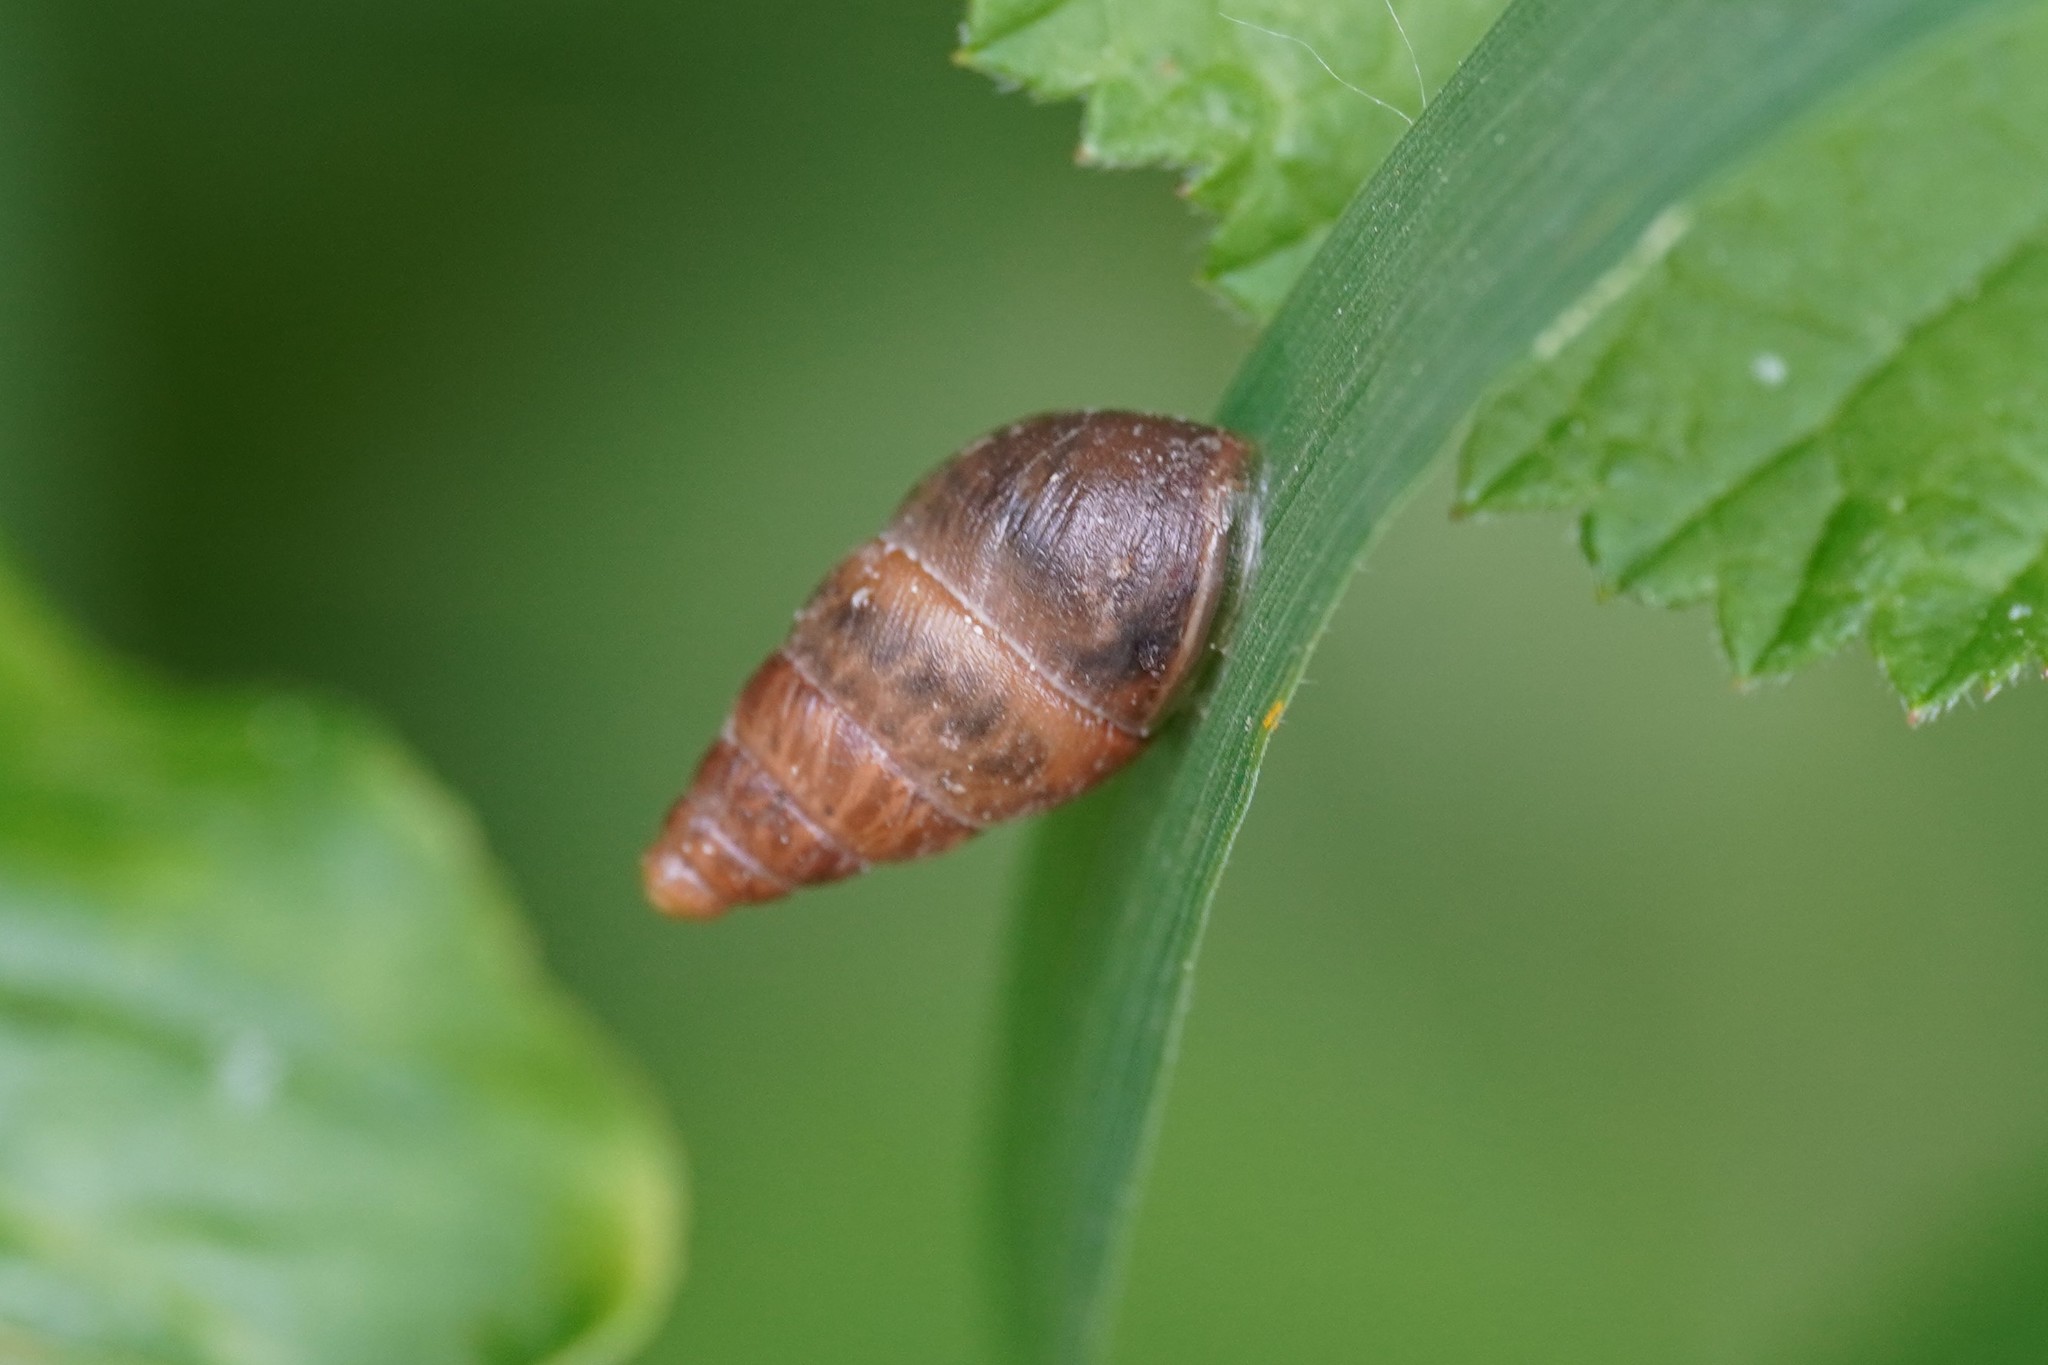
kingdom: Animalia
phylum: Mollusca
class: Gastropoda
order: Stylommatophora
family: Enidae
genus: Ena
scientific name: Ena montana
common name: Mountain bulin
